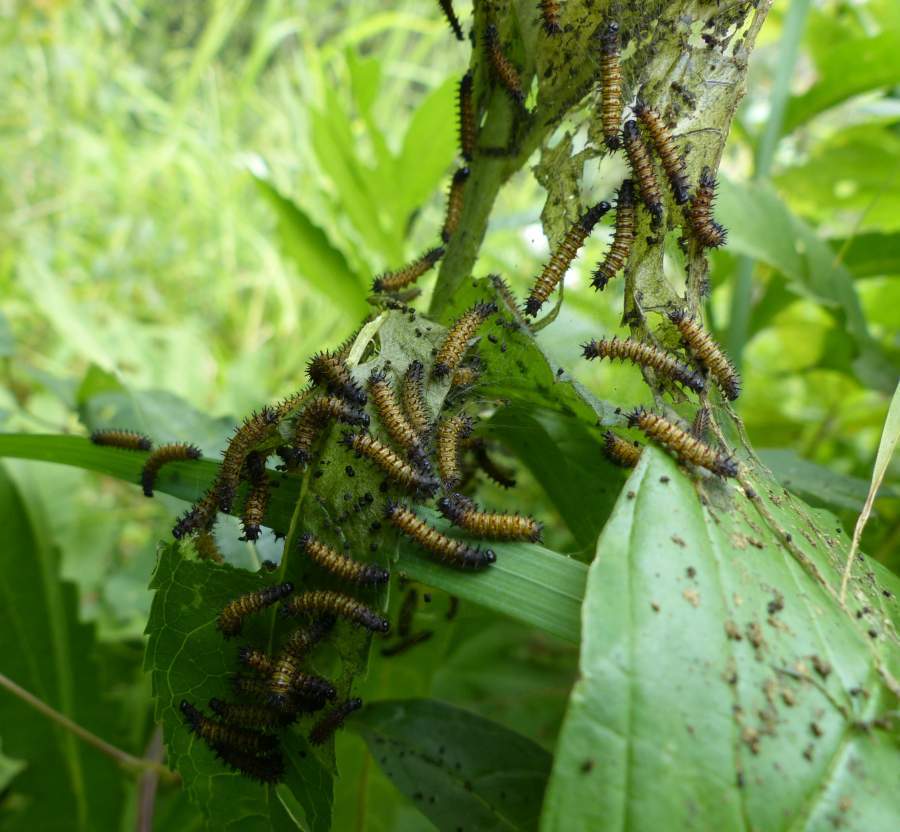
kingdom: Animalia
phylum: Arthropoda
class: Insecta
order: Lepidoptera
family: Nymphalidae
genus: Euphydryas
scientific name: Euphydryas phaeton
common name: Baltimore checkerspot
